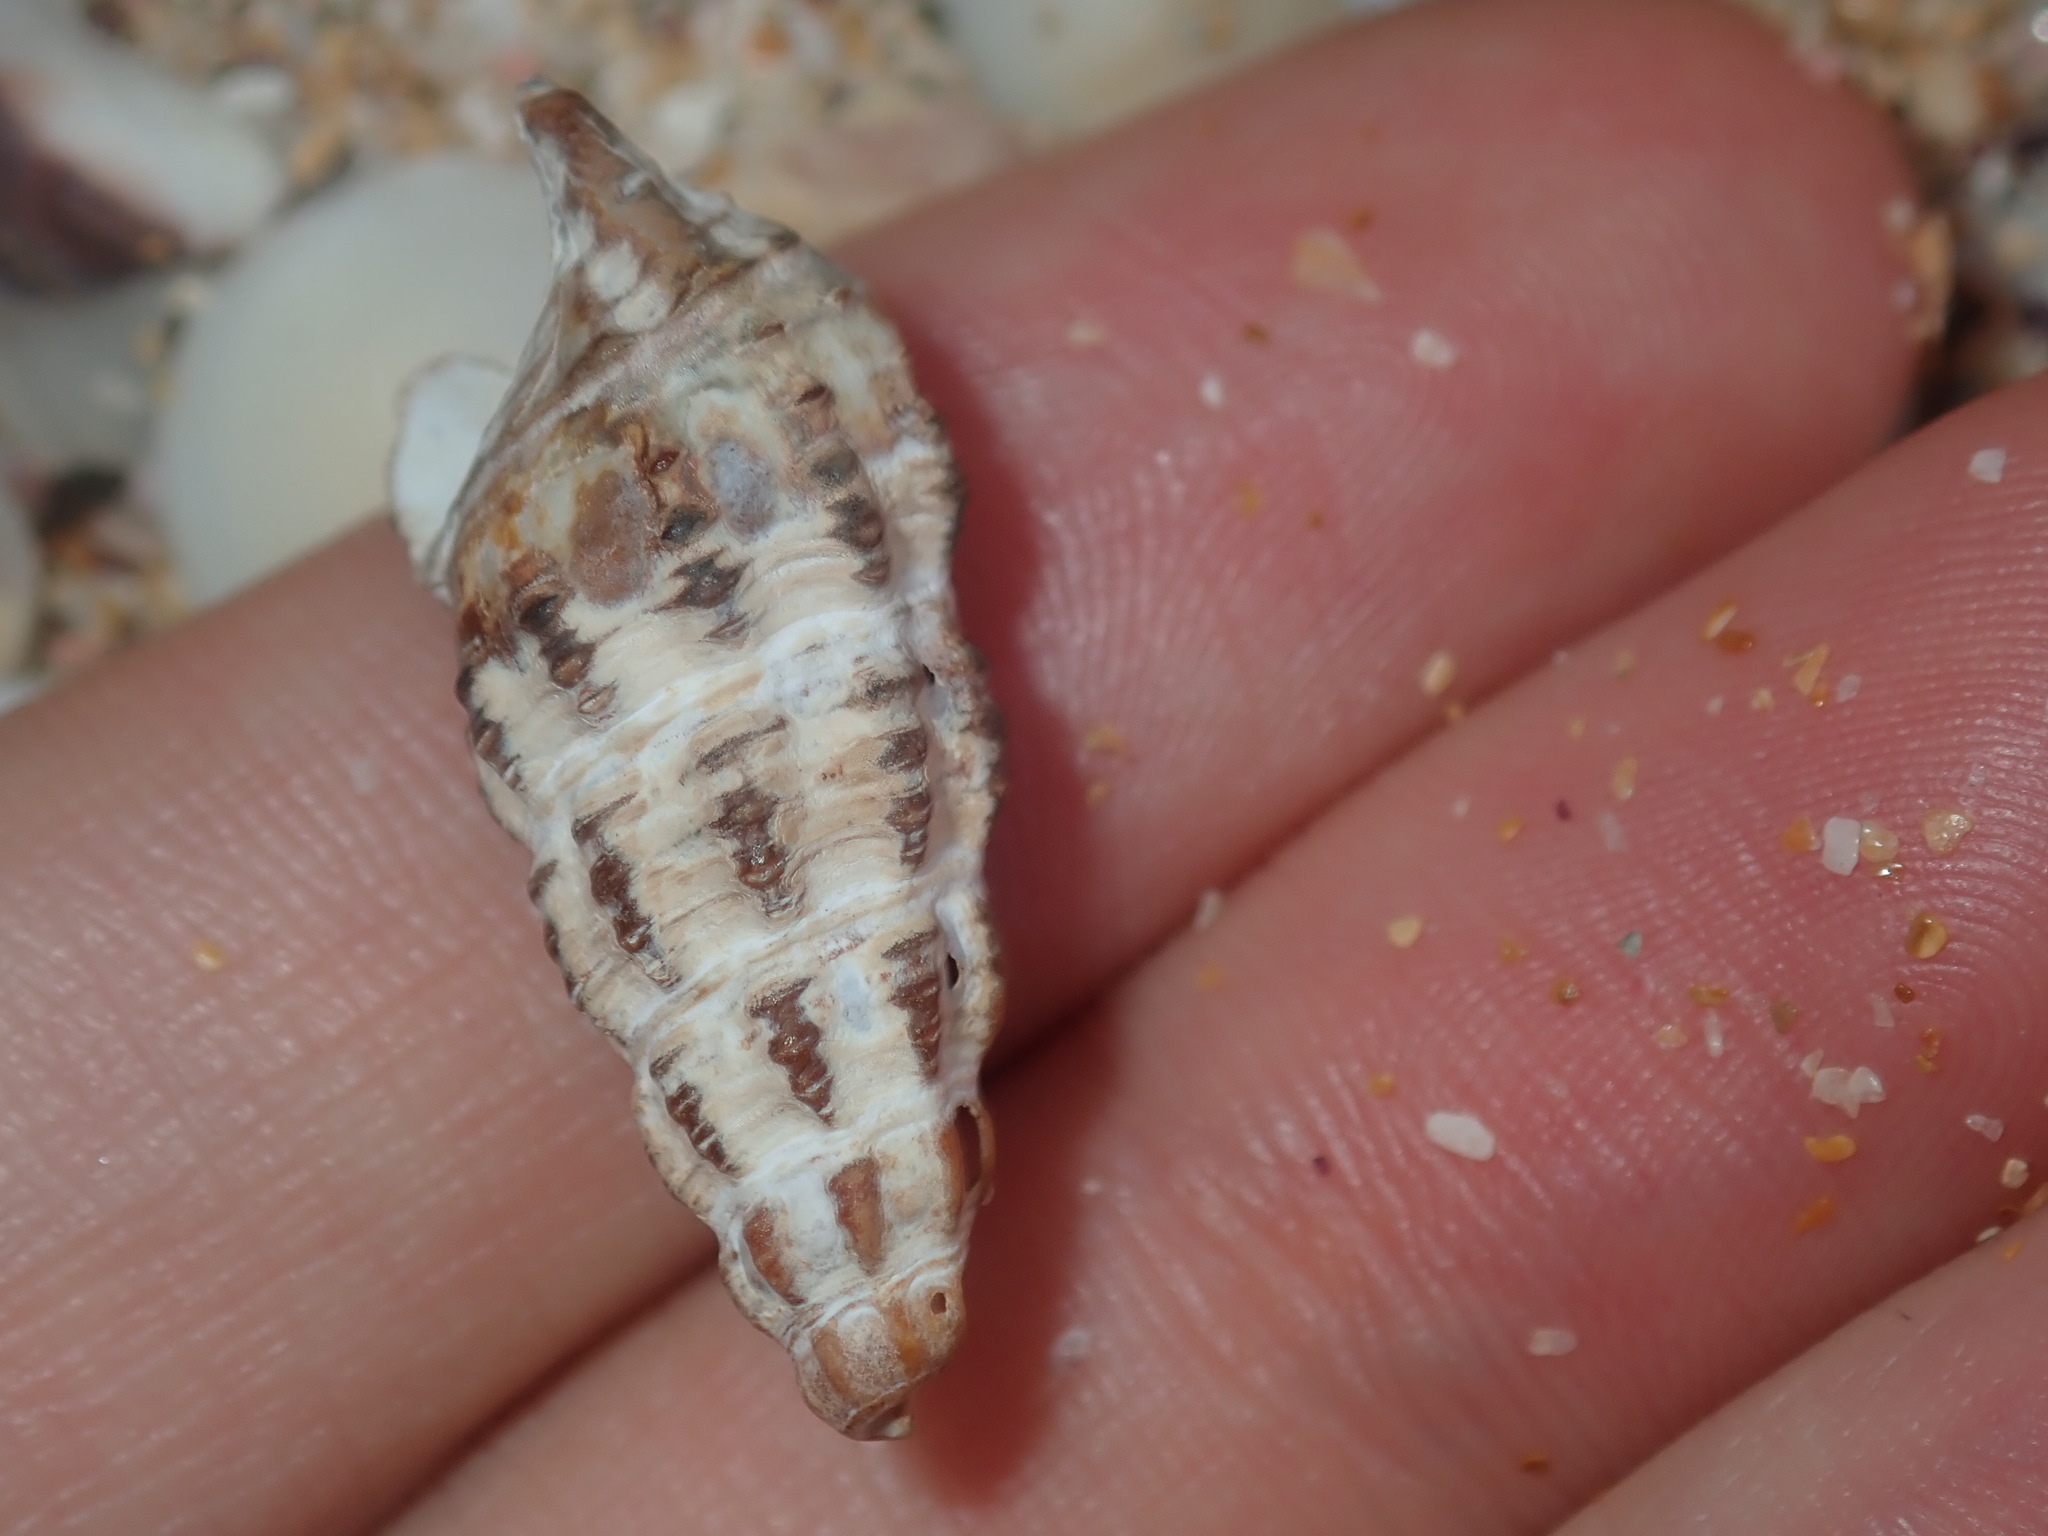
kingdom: Animalia
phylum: Mollusca
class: Gastropoda
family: Batillariidae
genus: Batillaria
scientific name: Batillaria australis
